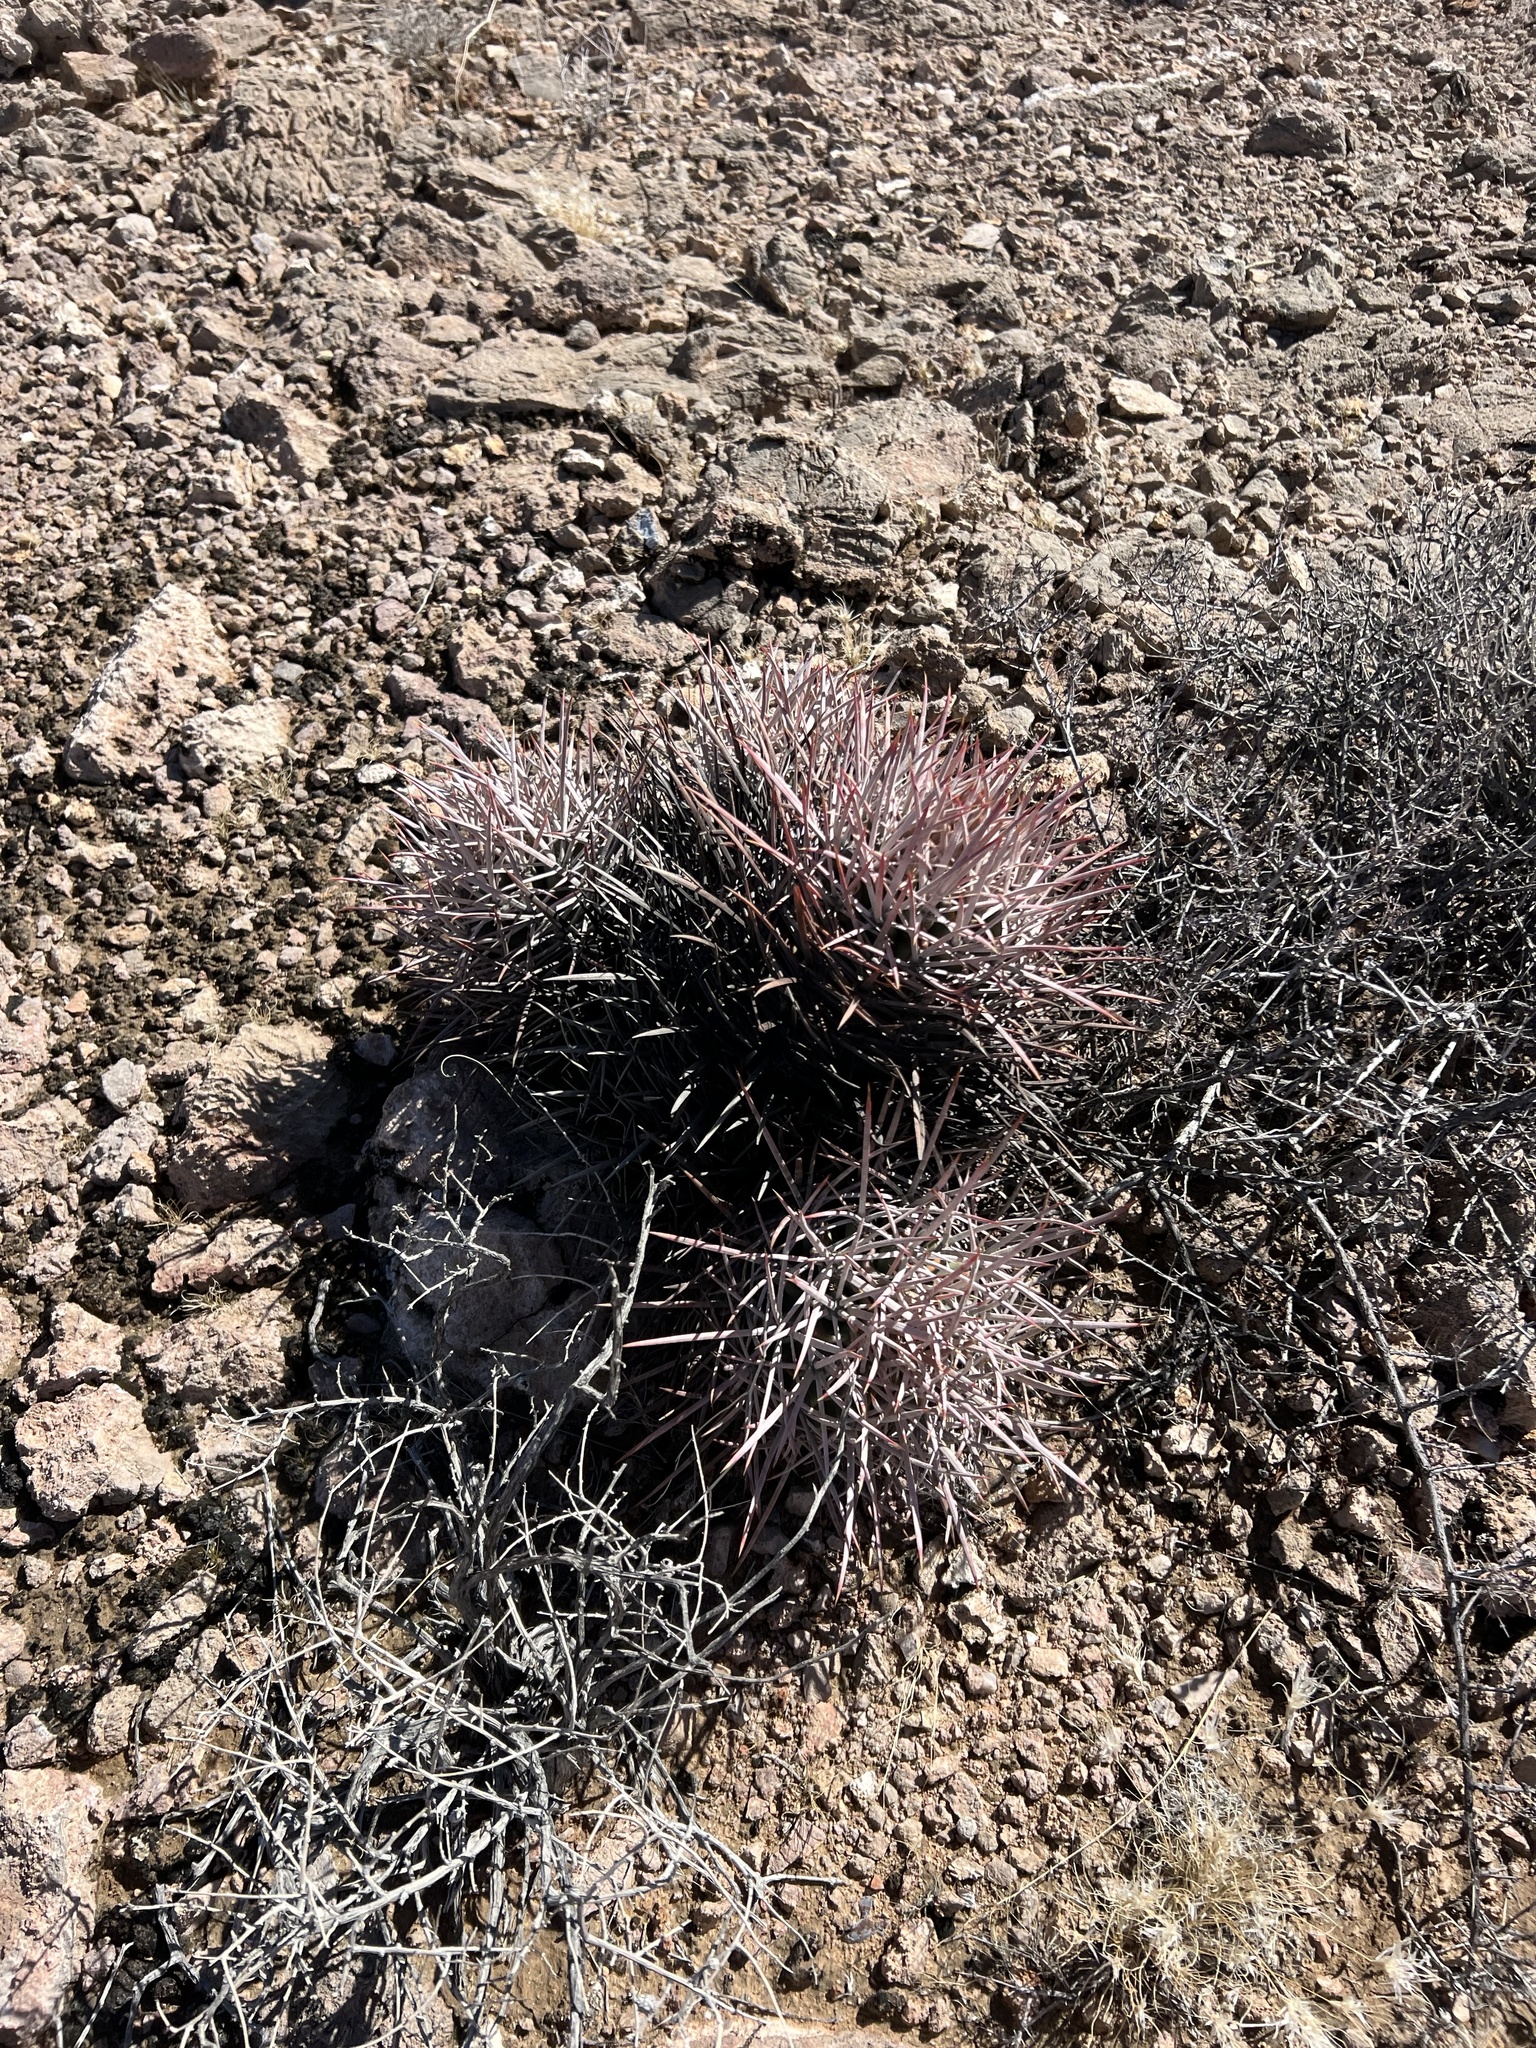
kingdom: Plantae
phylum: Tracheophyta
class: Magnoliopsida
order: Caryophyllales
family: Cactaceae
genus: Echinocactus
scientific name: Echinocactus polycephalus
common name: Cottontop cactus
